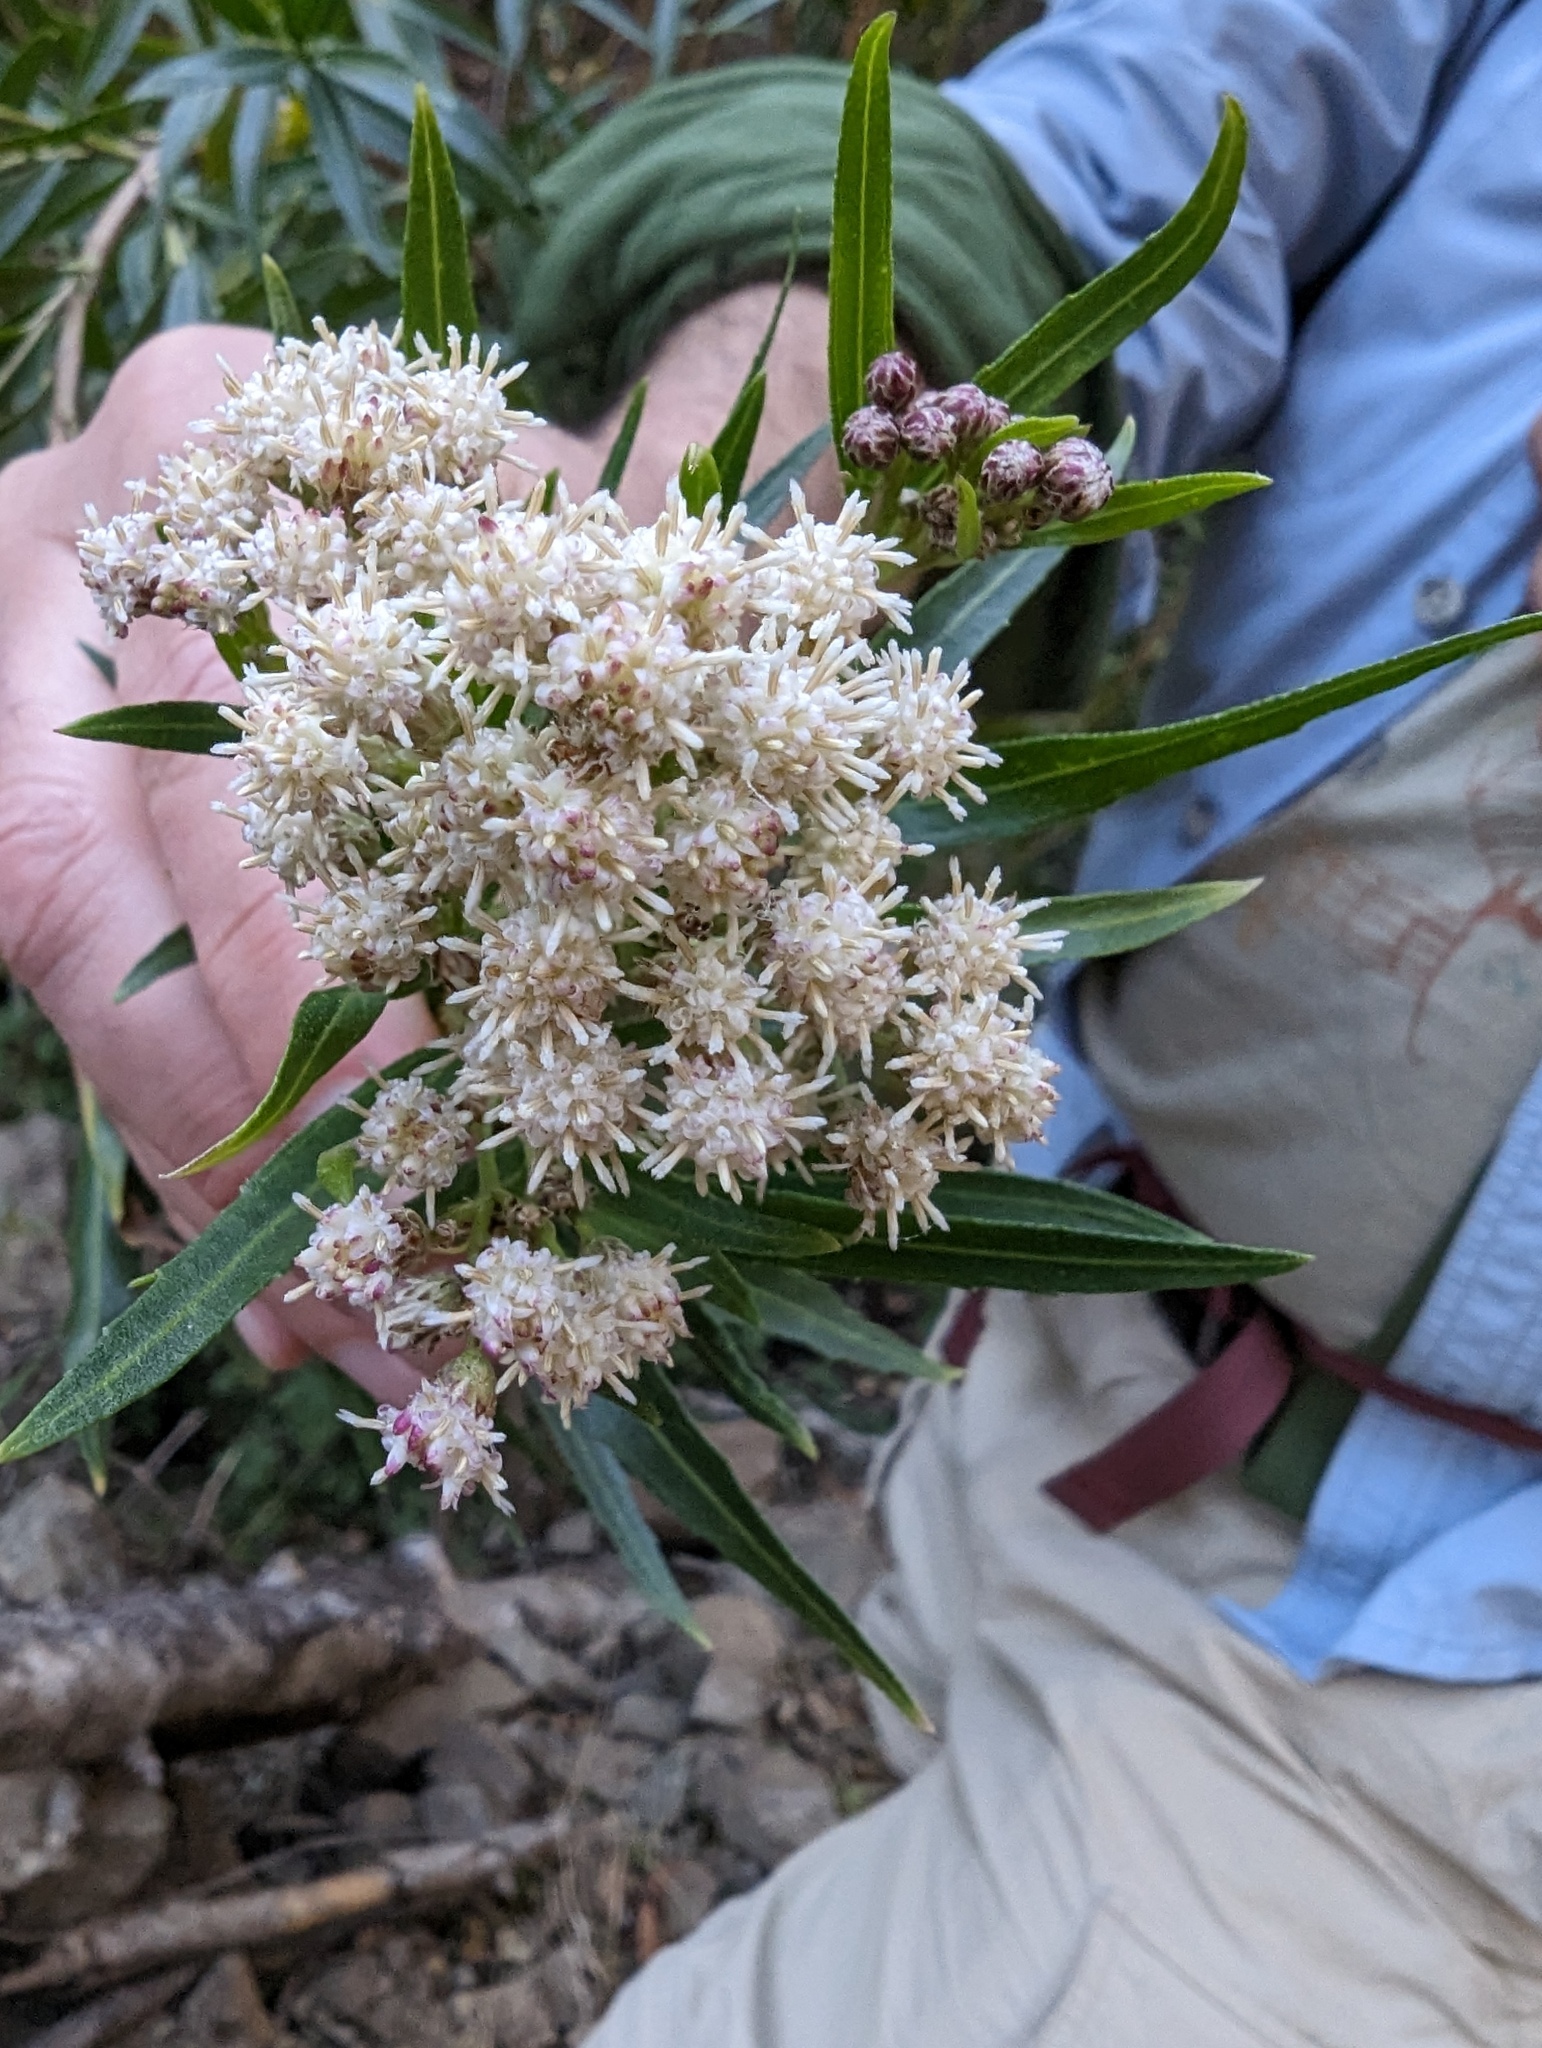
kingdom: Plantae
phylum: Tracheophyta
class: Magnoliopsida
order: Asterales
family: Asteraceae
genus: Baccharis
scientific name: Baccharis salicifolia
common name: Sticky baccharis
